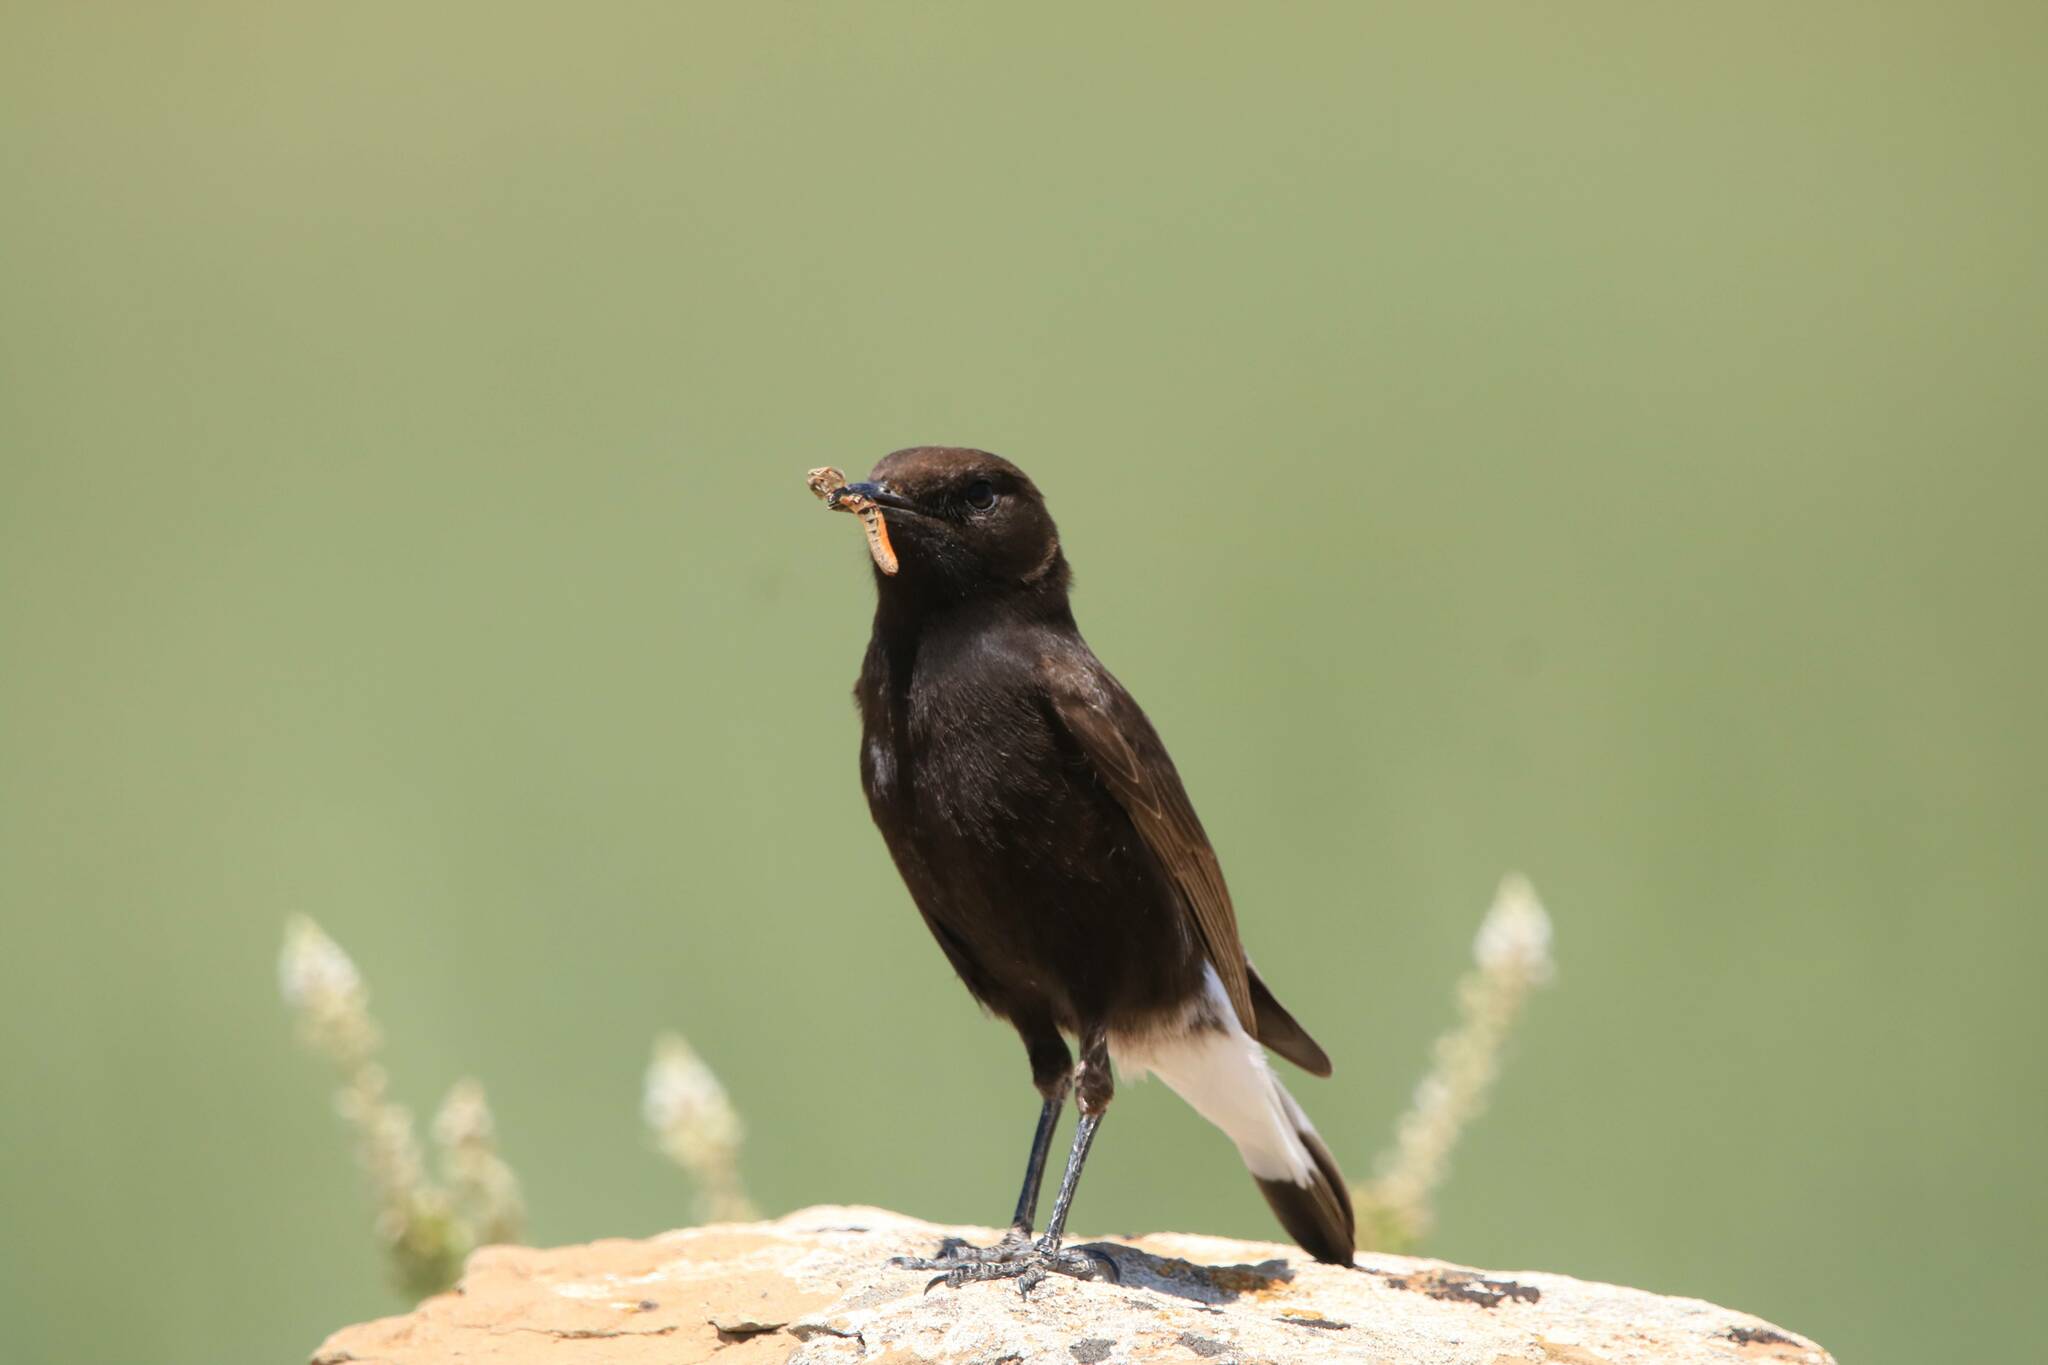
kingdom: Animalia
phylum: Chordata
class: Aves
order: Passeriformes
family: Muscicapidae
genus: Oenanthe
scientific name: Oenanthe leucura
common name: Black wheatear
